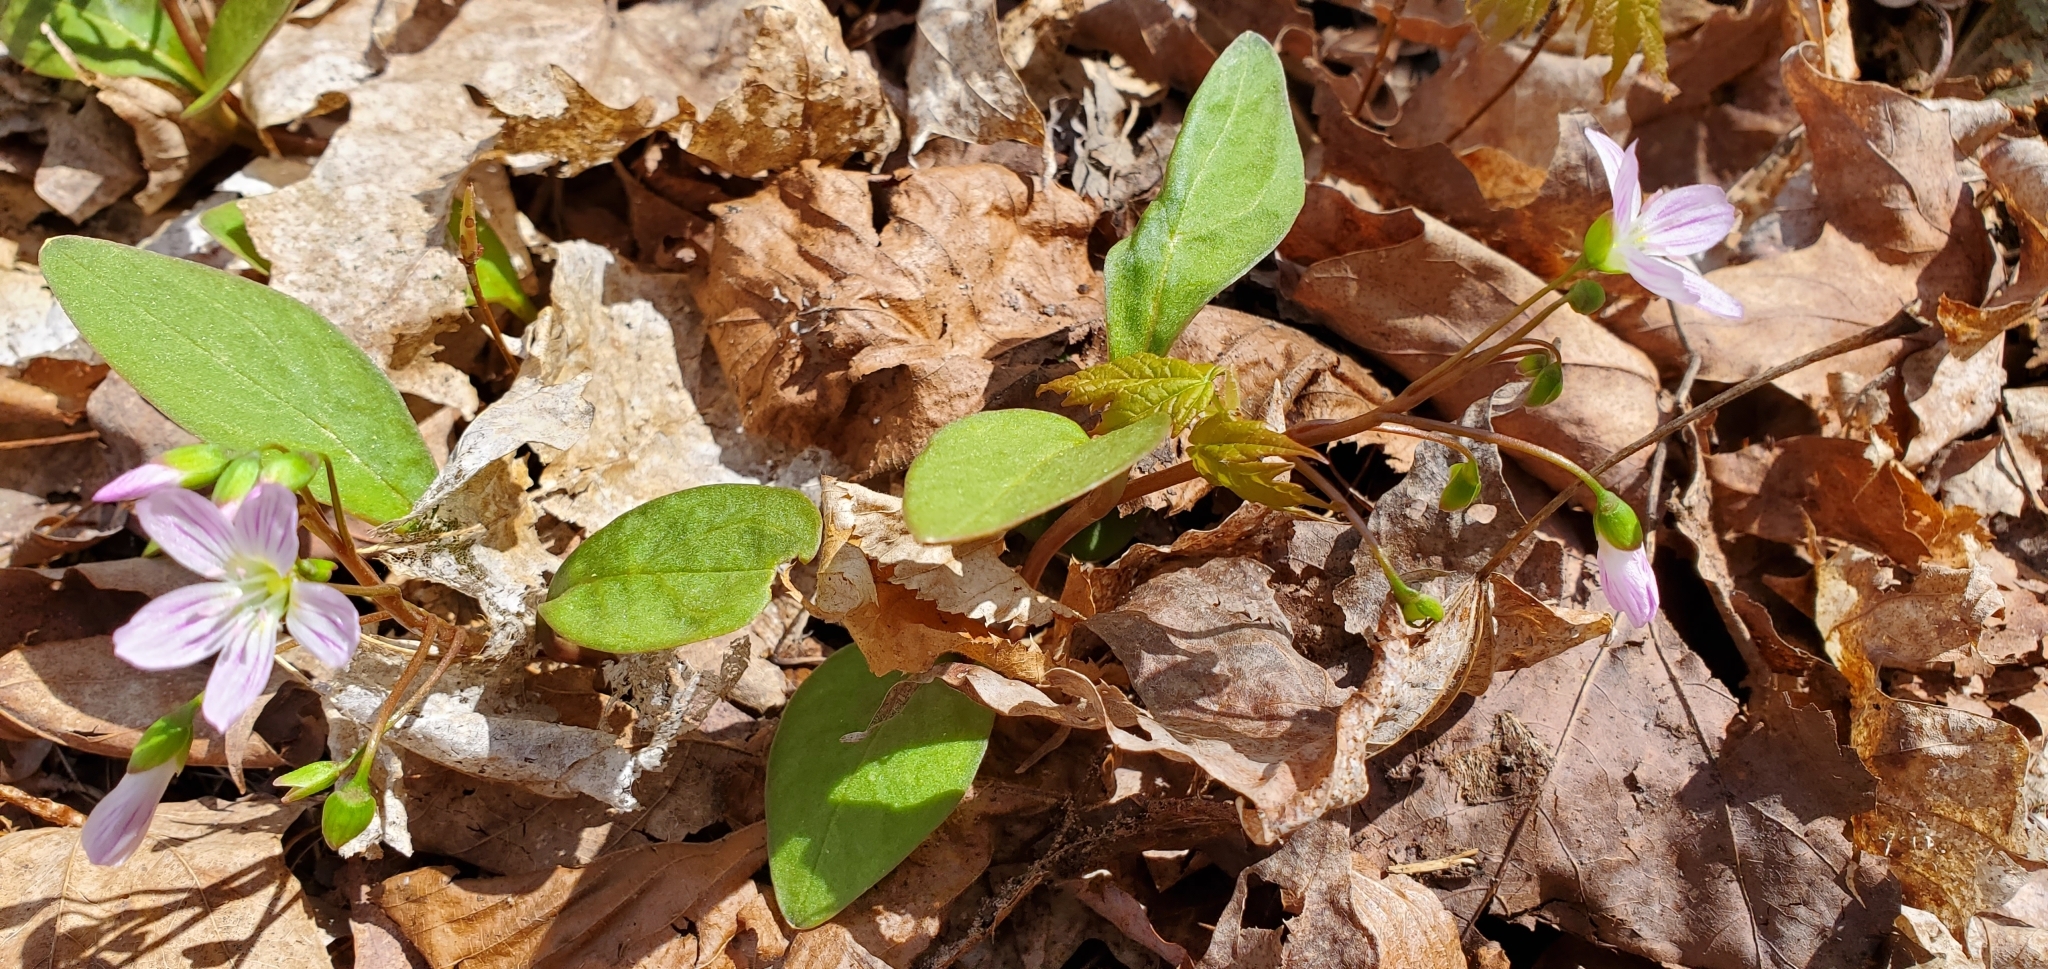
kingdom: Plantae
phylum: Tracheophyta
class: Magnoliopsida
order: Caryophyllales
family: Montiaceae
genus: Claytonia
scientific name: Claytonia caroliniana
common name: Carolina spring beauty
